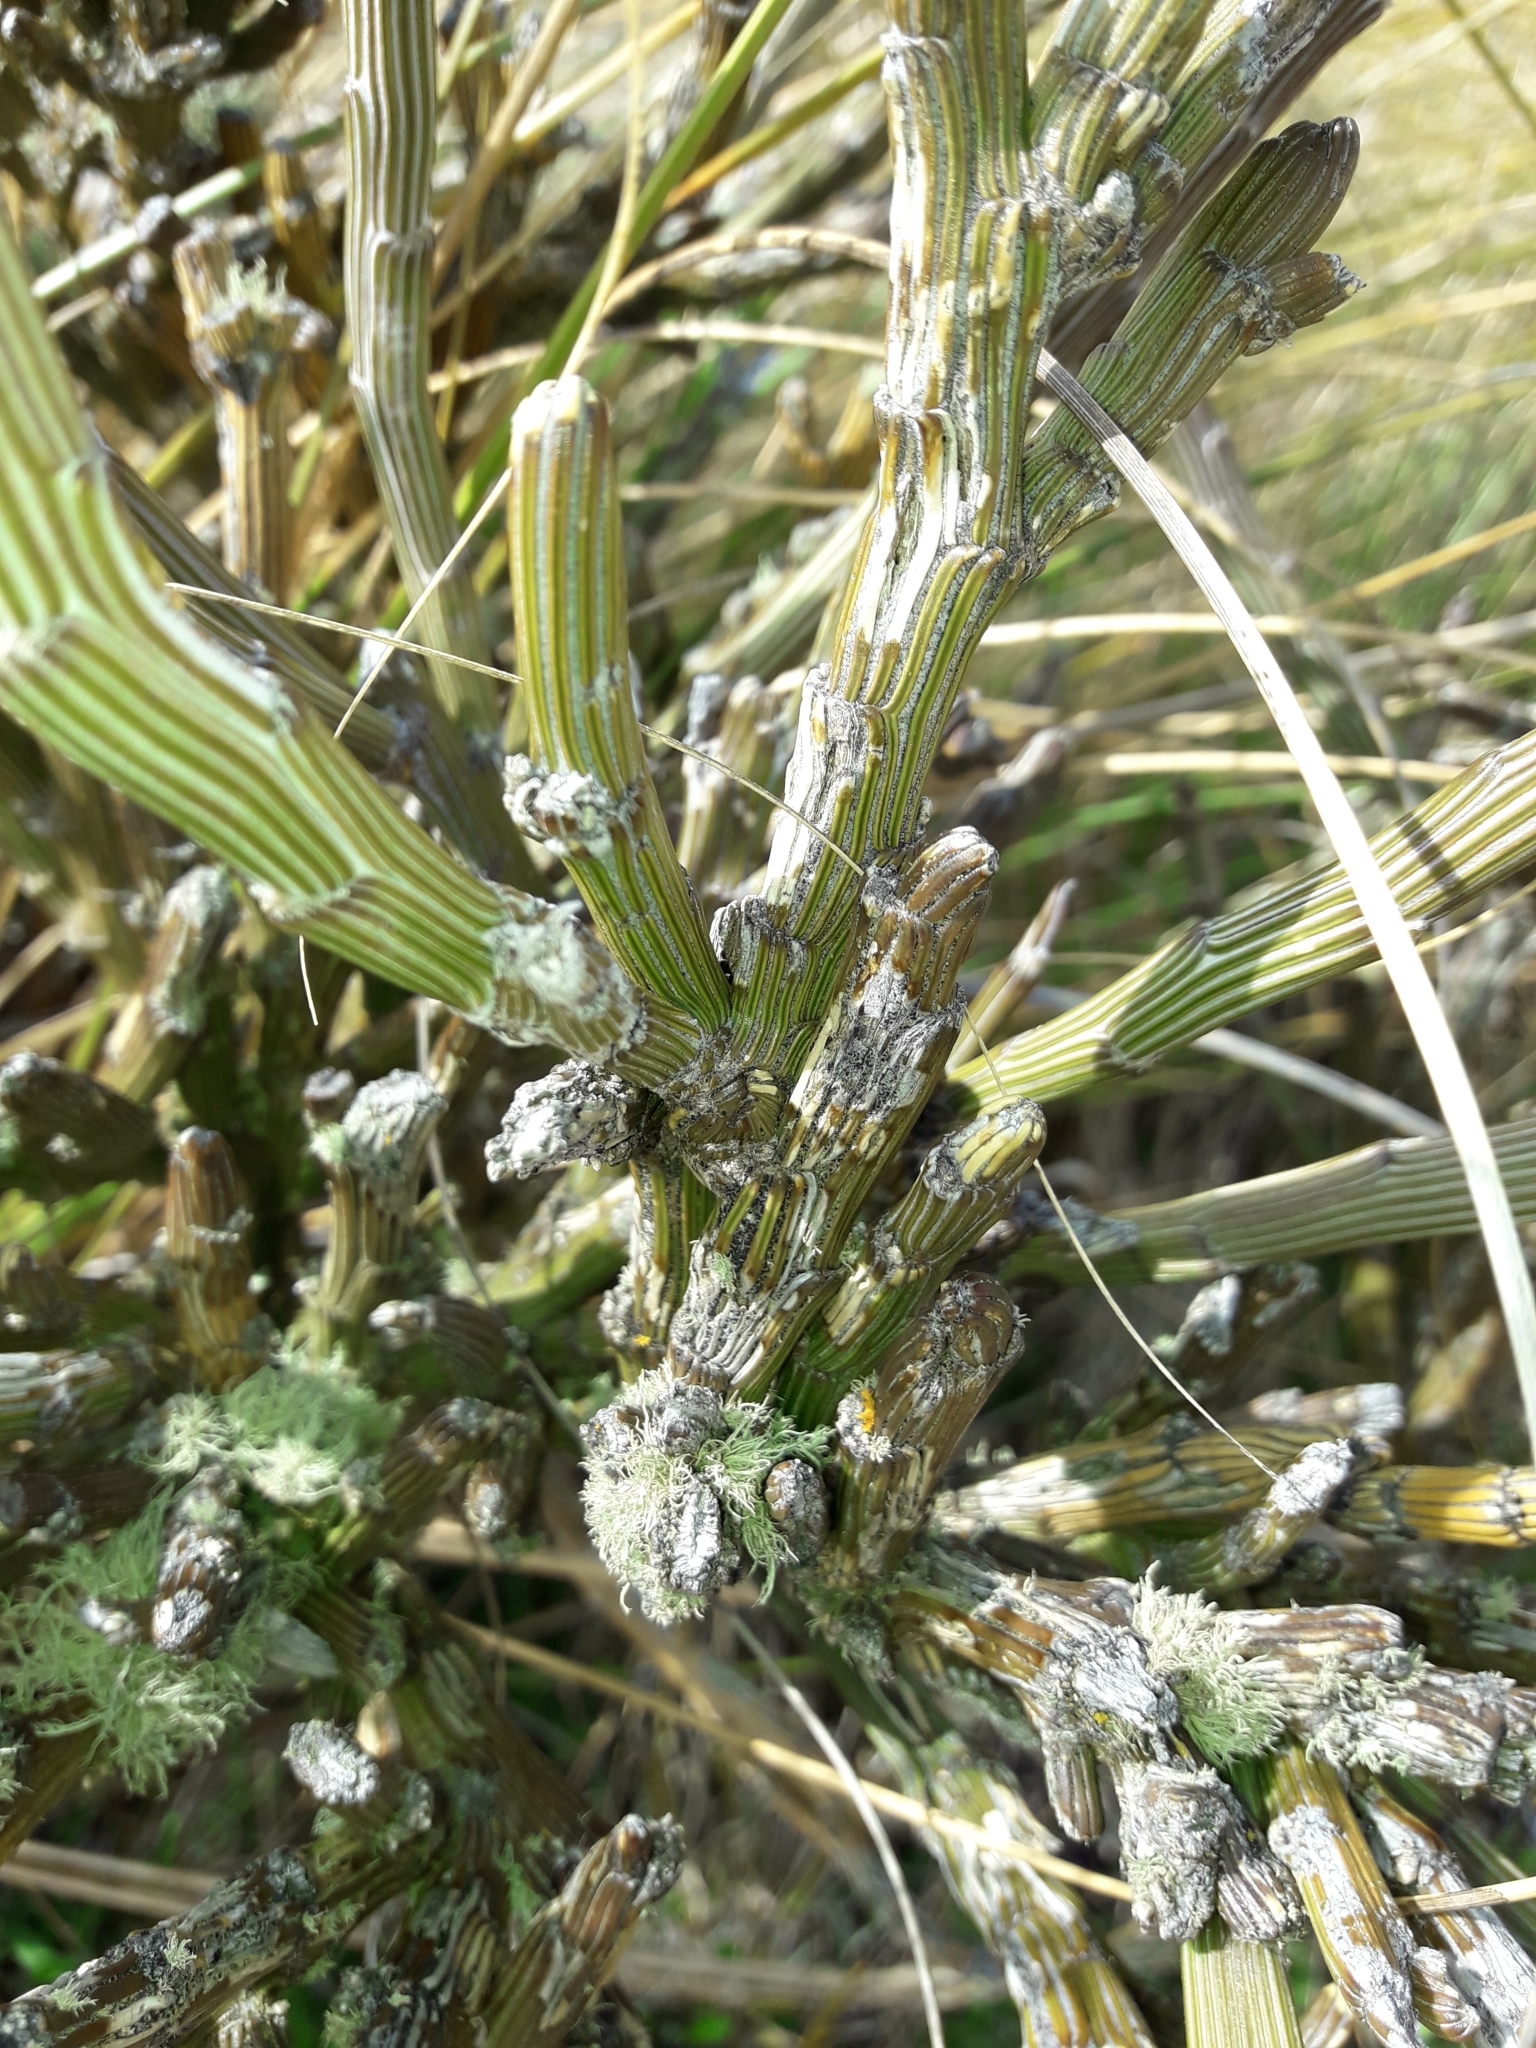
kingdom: Plantae
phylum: Tracheophyta
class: Magnoliopsida
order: Fabales
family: Fabaceae
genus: Carmichaelia
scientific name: Carmichaelia crassicaulis
